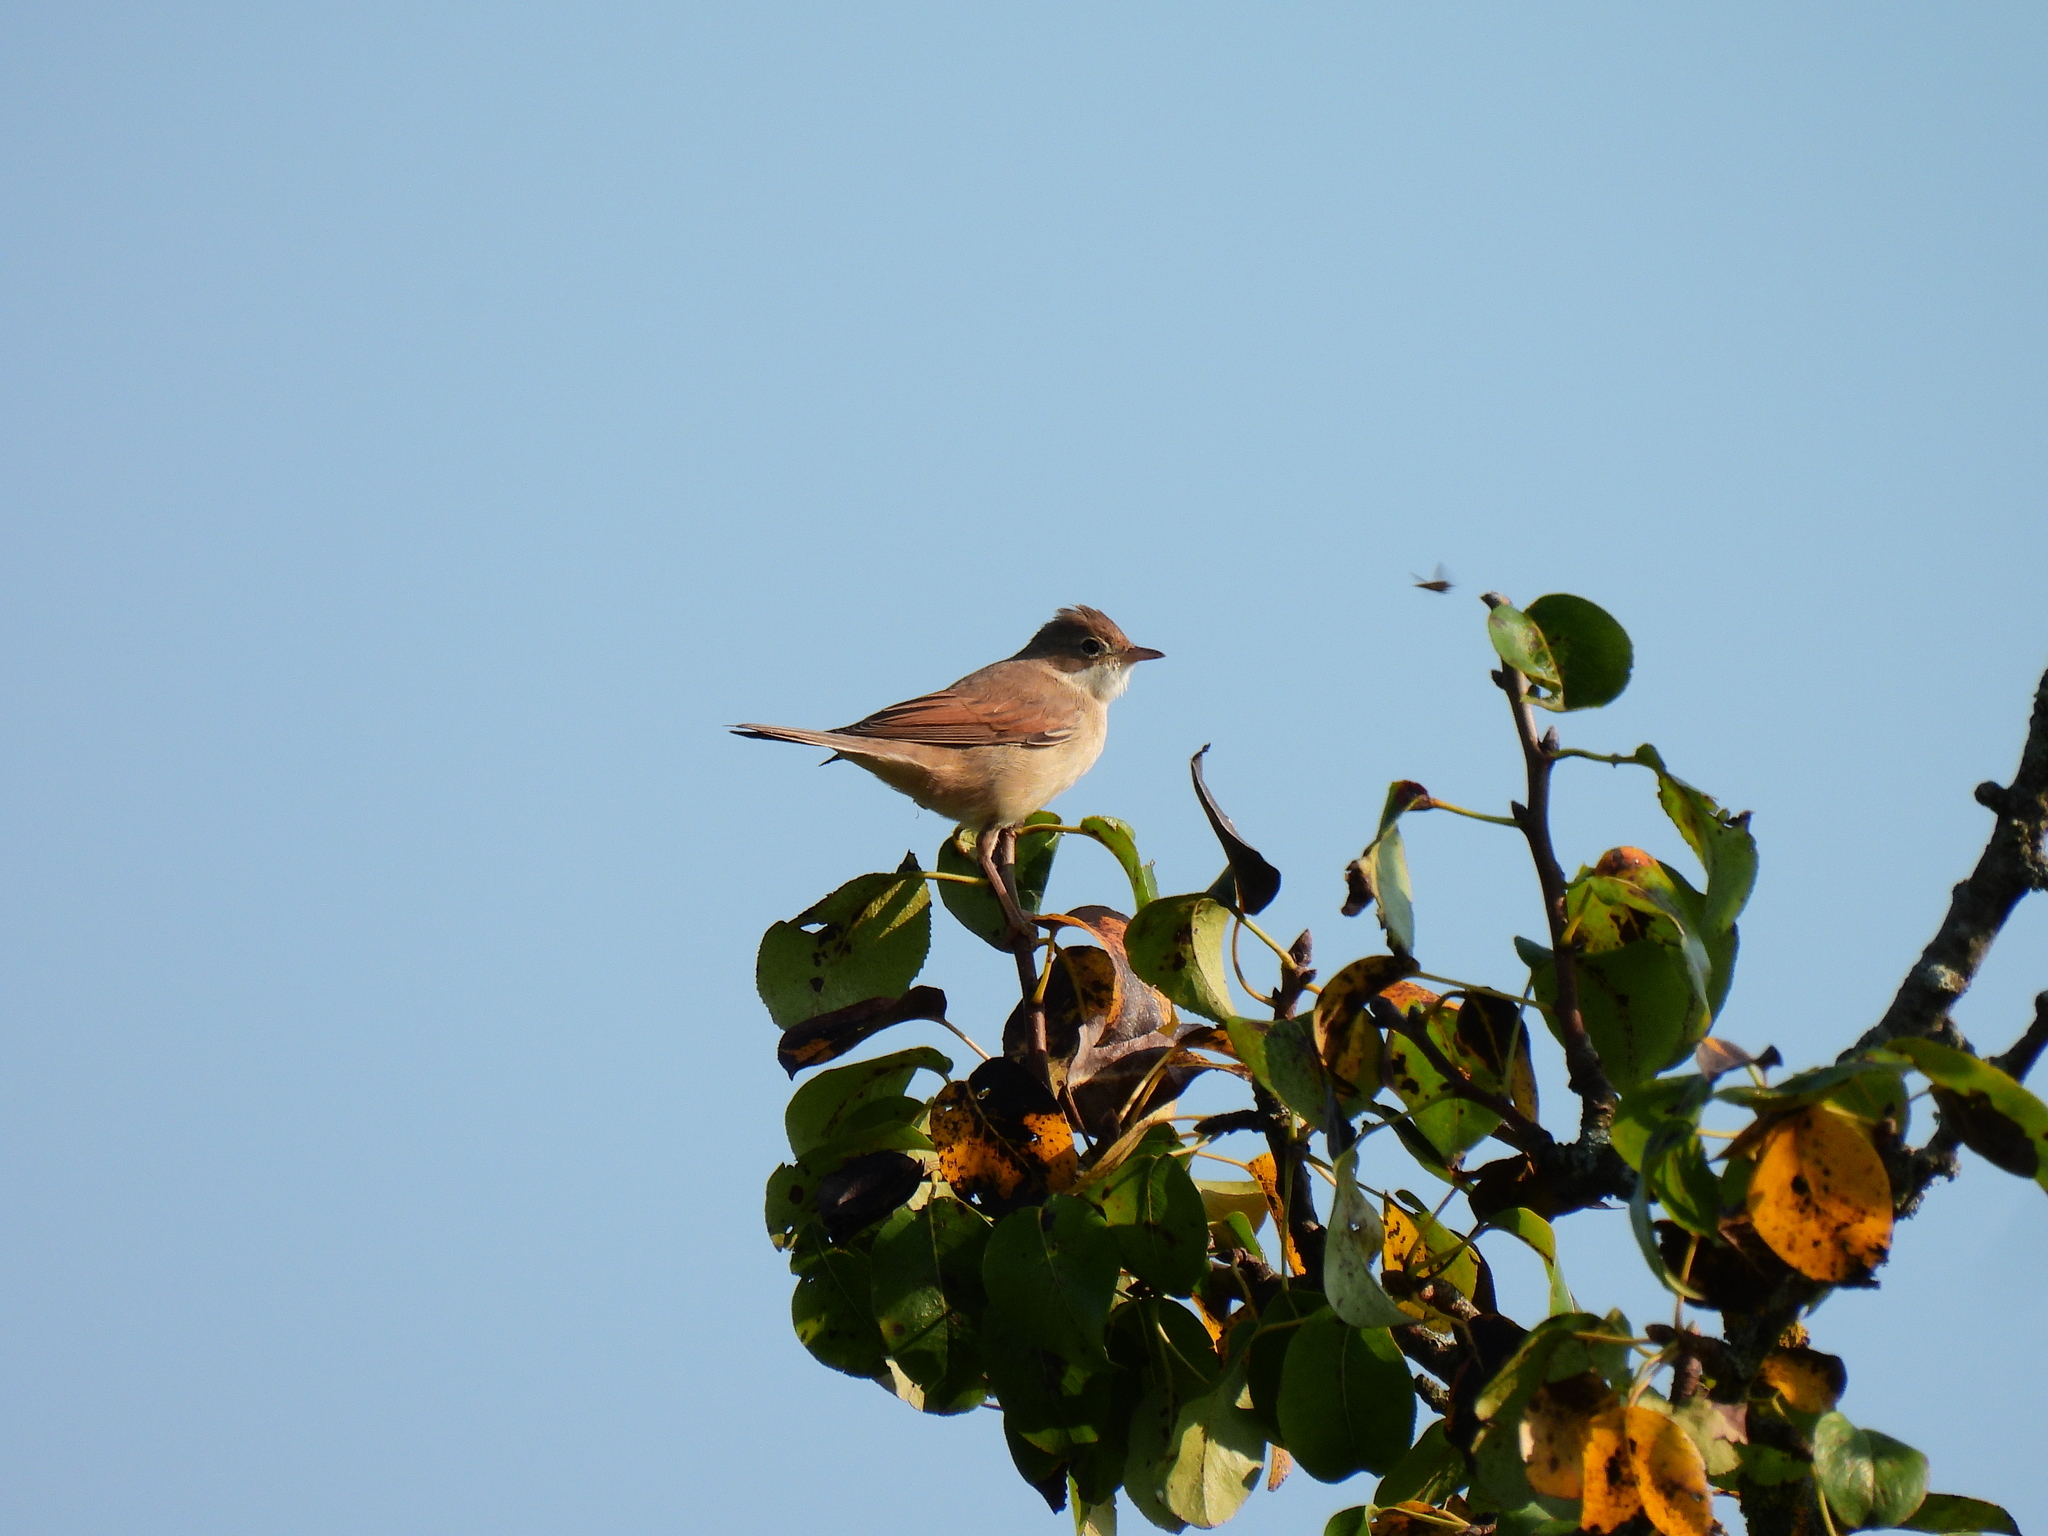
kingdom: Animalia
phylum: Chordata
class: Aves
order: Passeriformes
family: Sylviidae
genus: Sylvia
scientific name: Sylvia communis
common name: Common whitethroat
